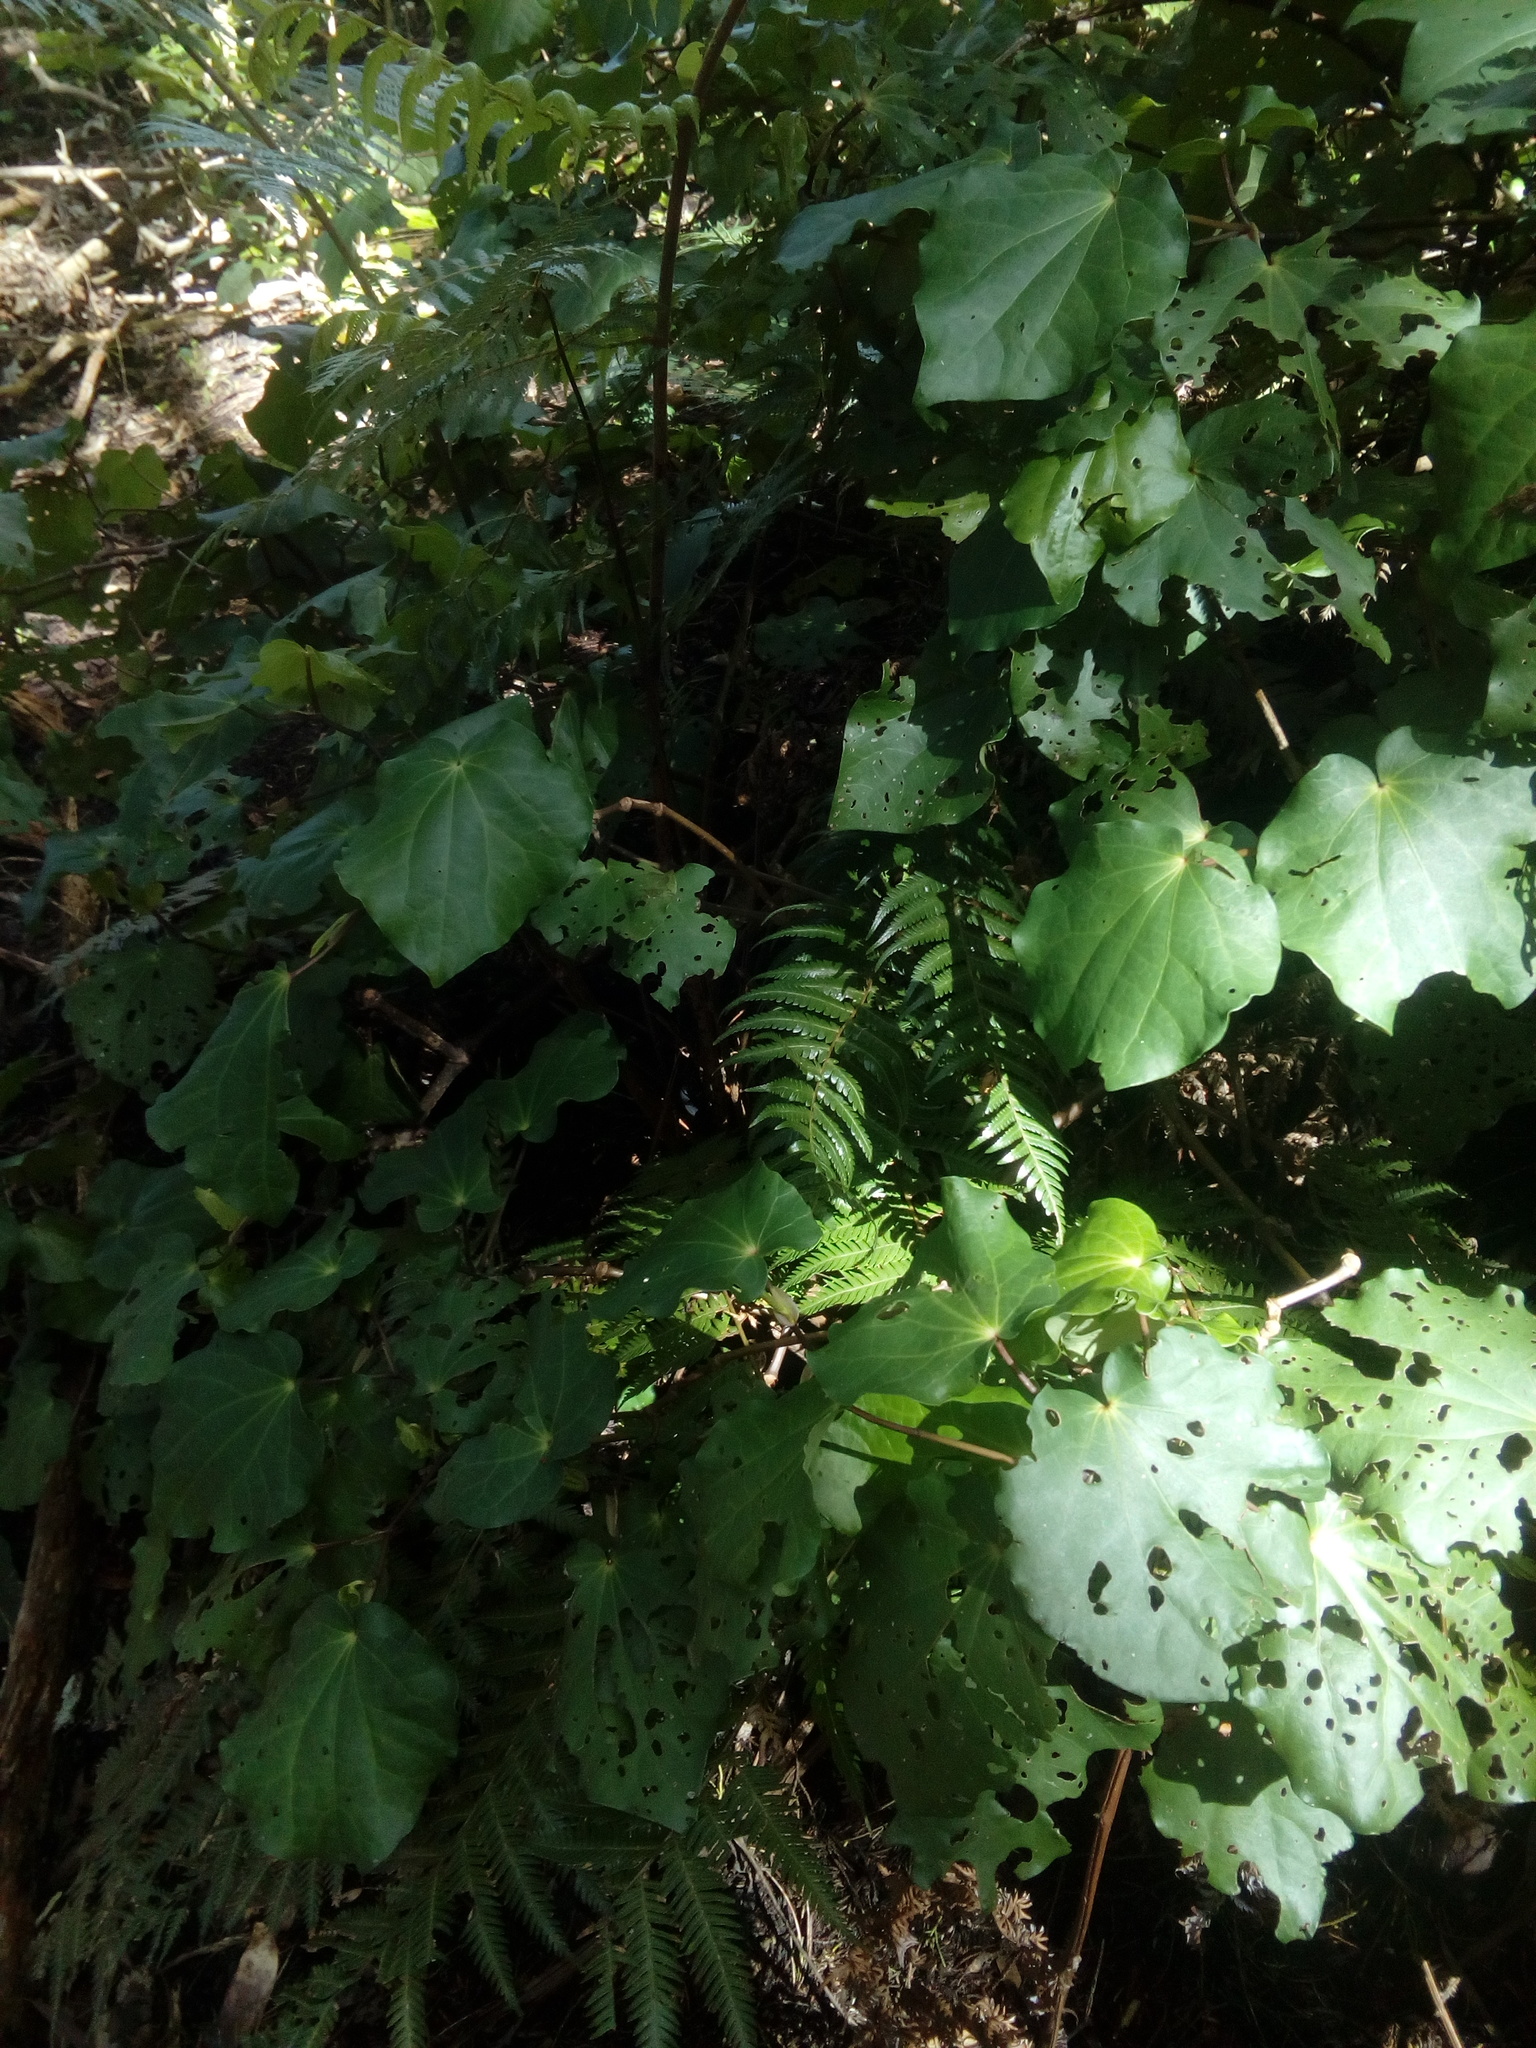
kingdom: Plantae
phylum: Tracheophyta
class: Magnoliopsida
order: Piperales
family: Piperaceae
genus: Macropiper
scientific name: Macropiper excelsum
